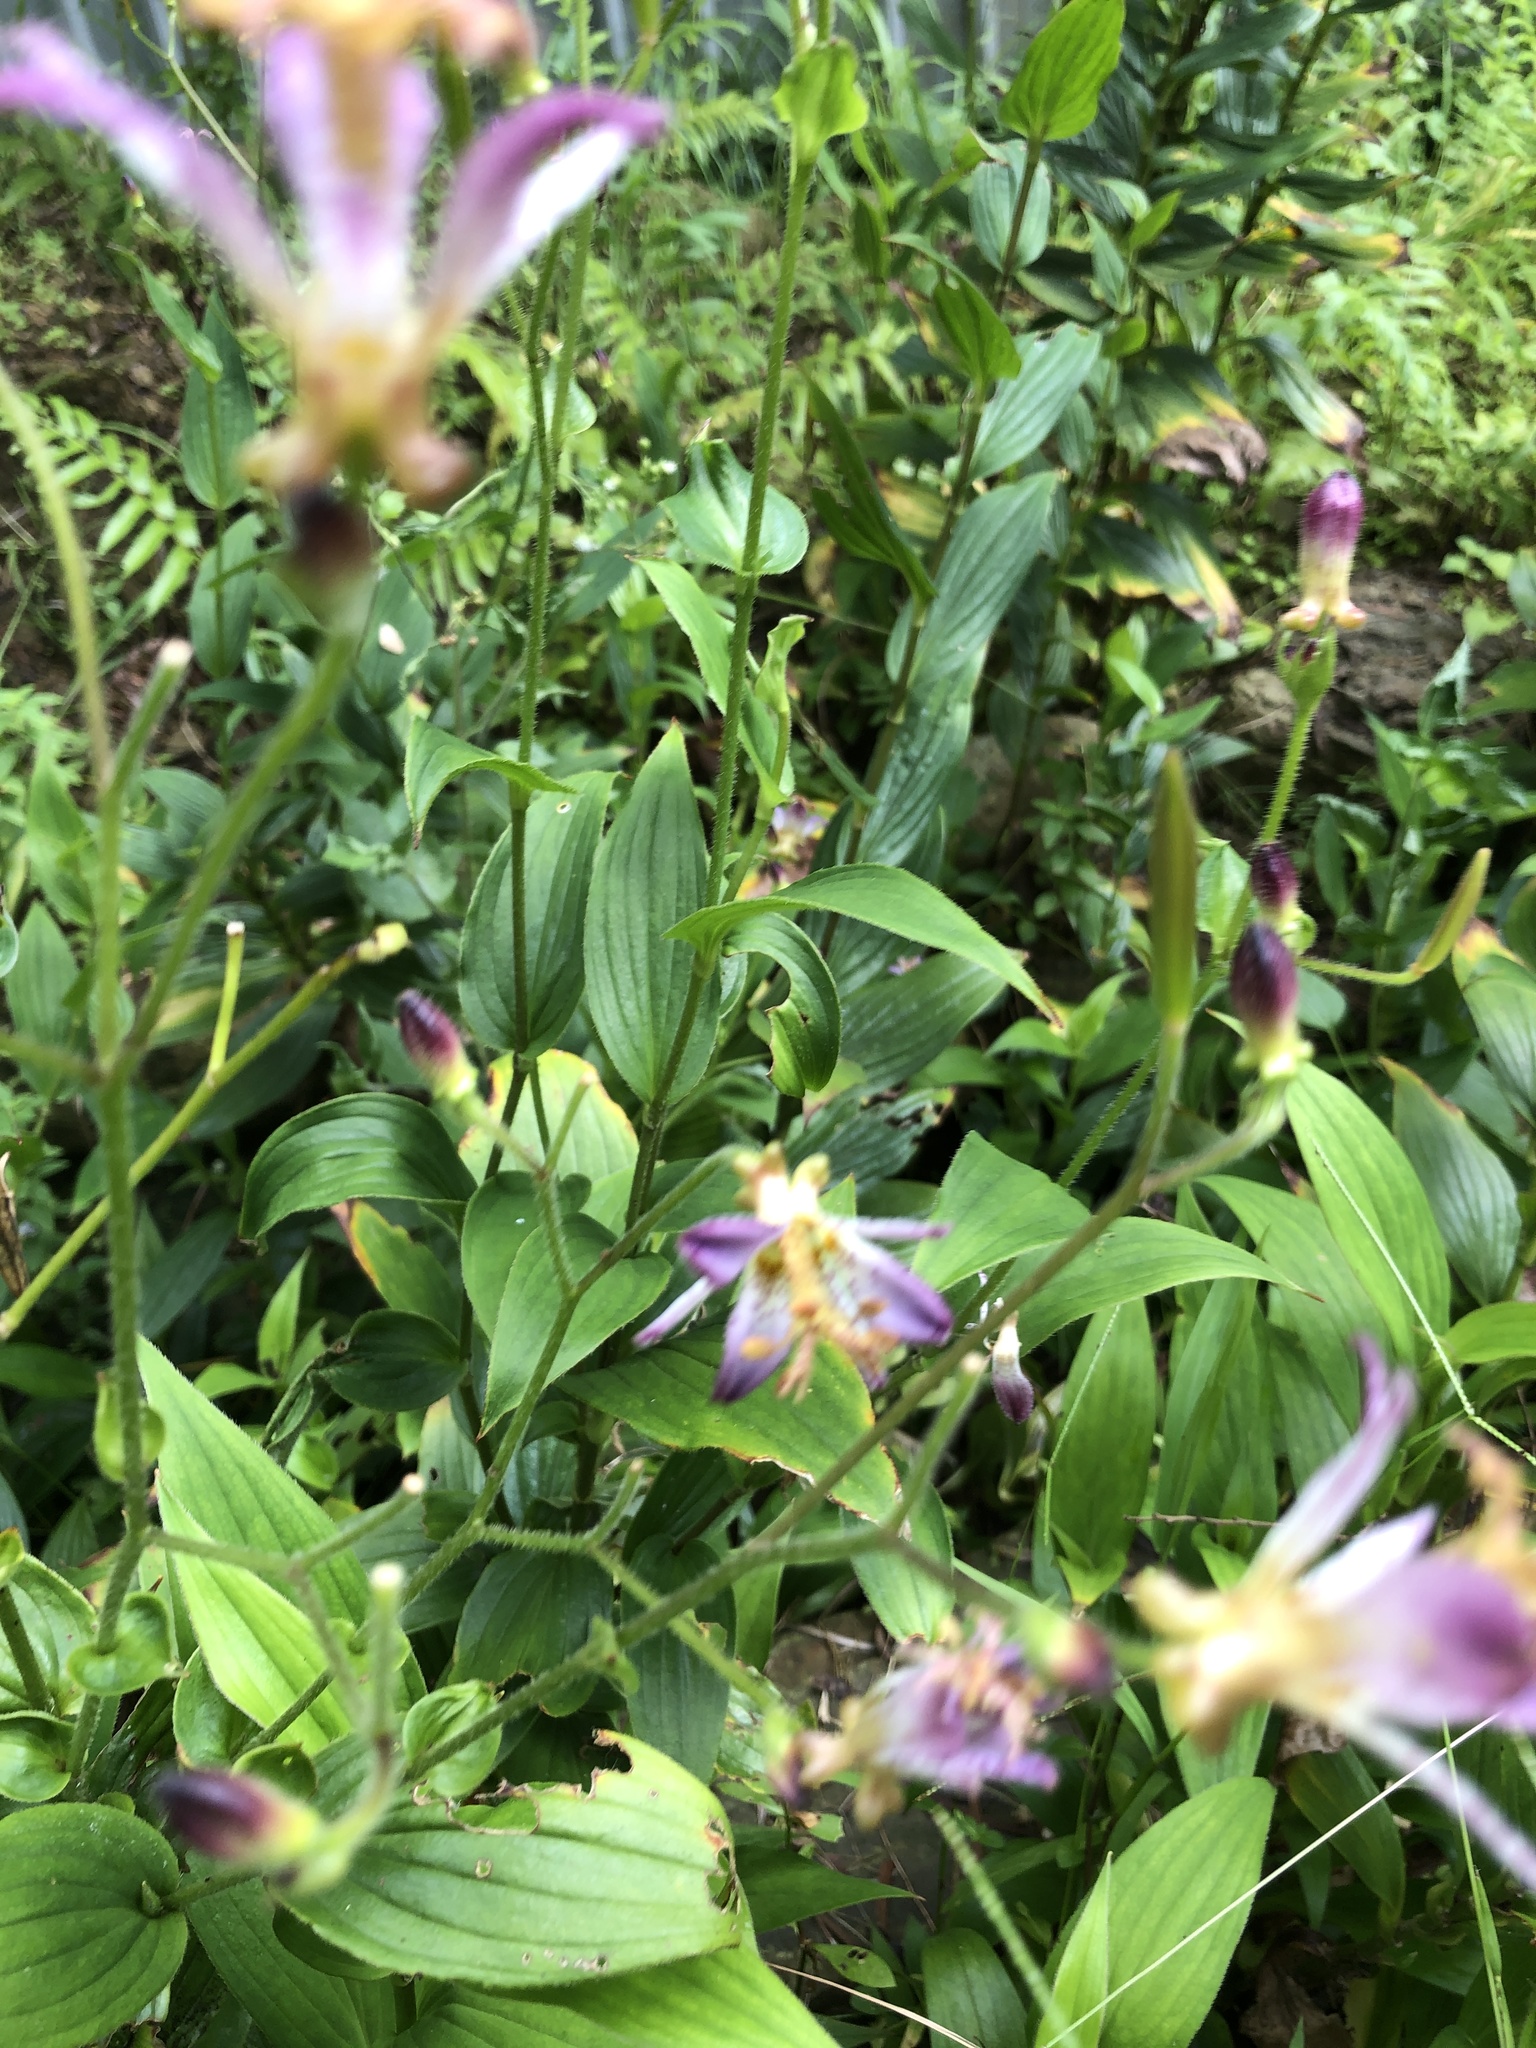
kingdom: Plantae
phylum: Tracheophyta
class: Liliopsida
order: Liliales
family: Liliaceae
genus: Tricyrtis
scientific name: Tricyrtis formosana
